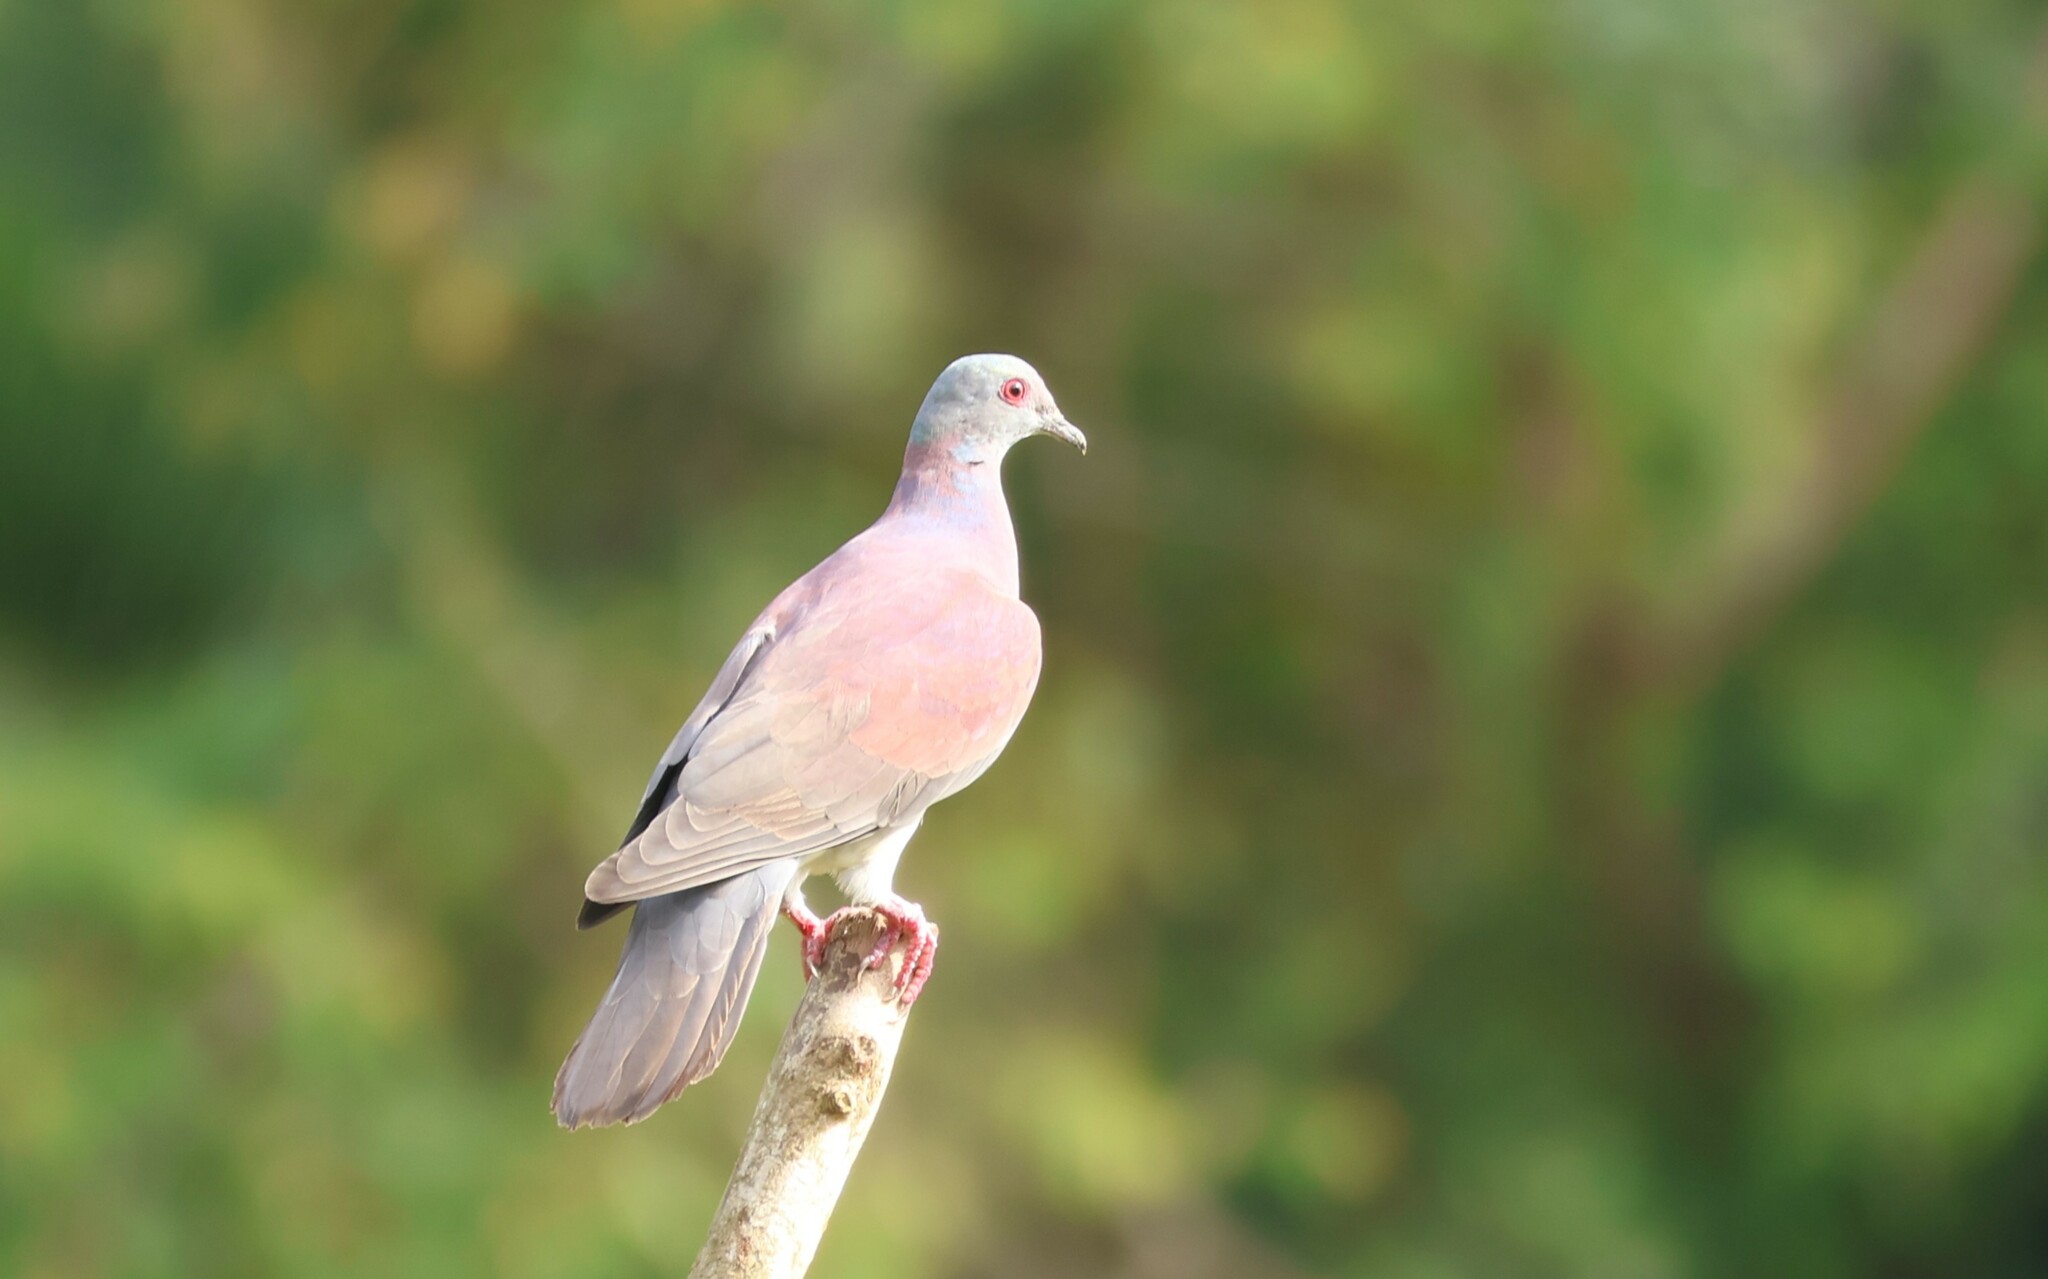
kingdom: Animalia
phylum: Chordata
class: Aves
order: Columbiformes
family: Columbidae
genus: Patagioenas
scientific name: Patagioenas cayennensis
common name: Pale-vented pigeon
